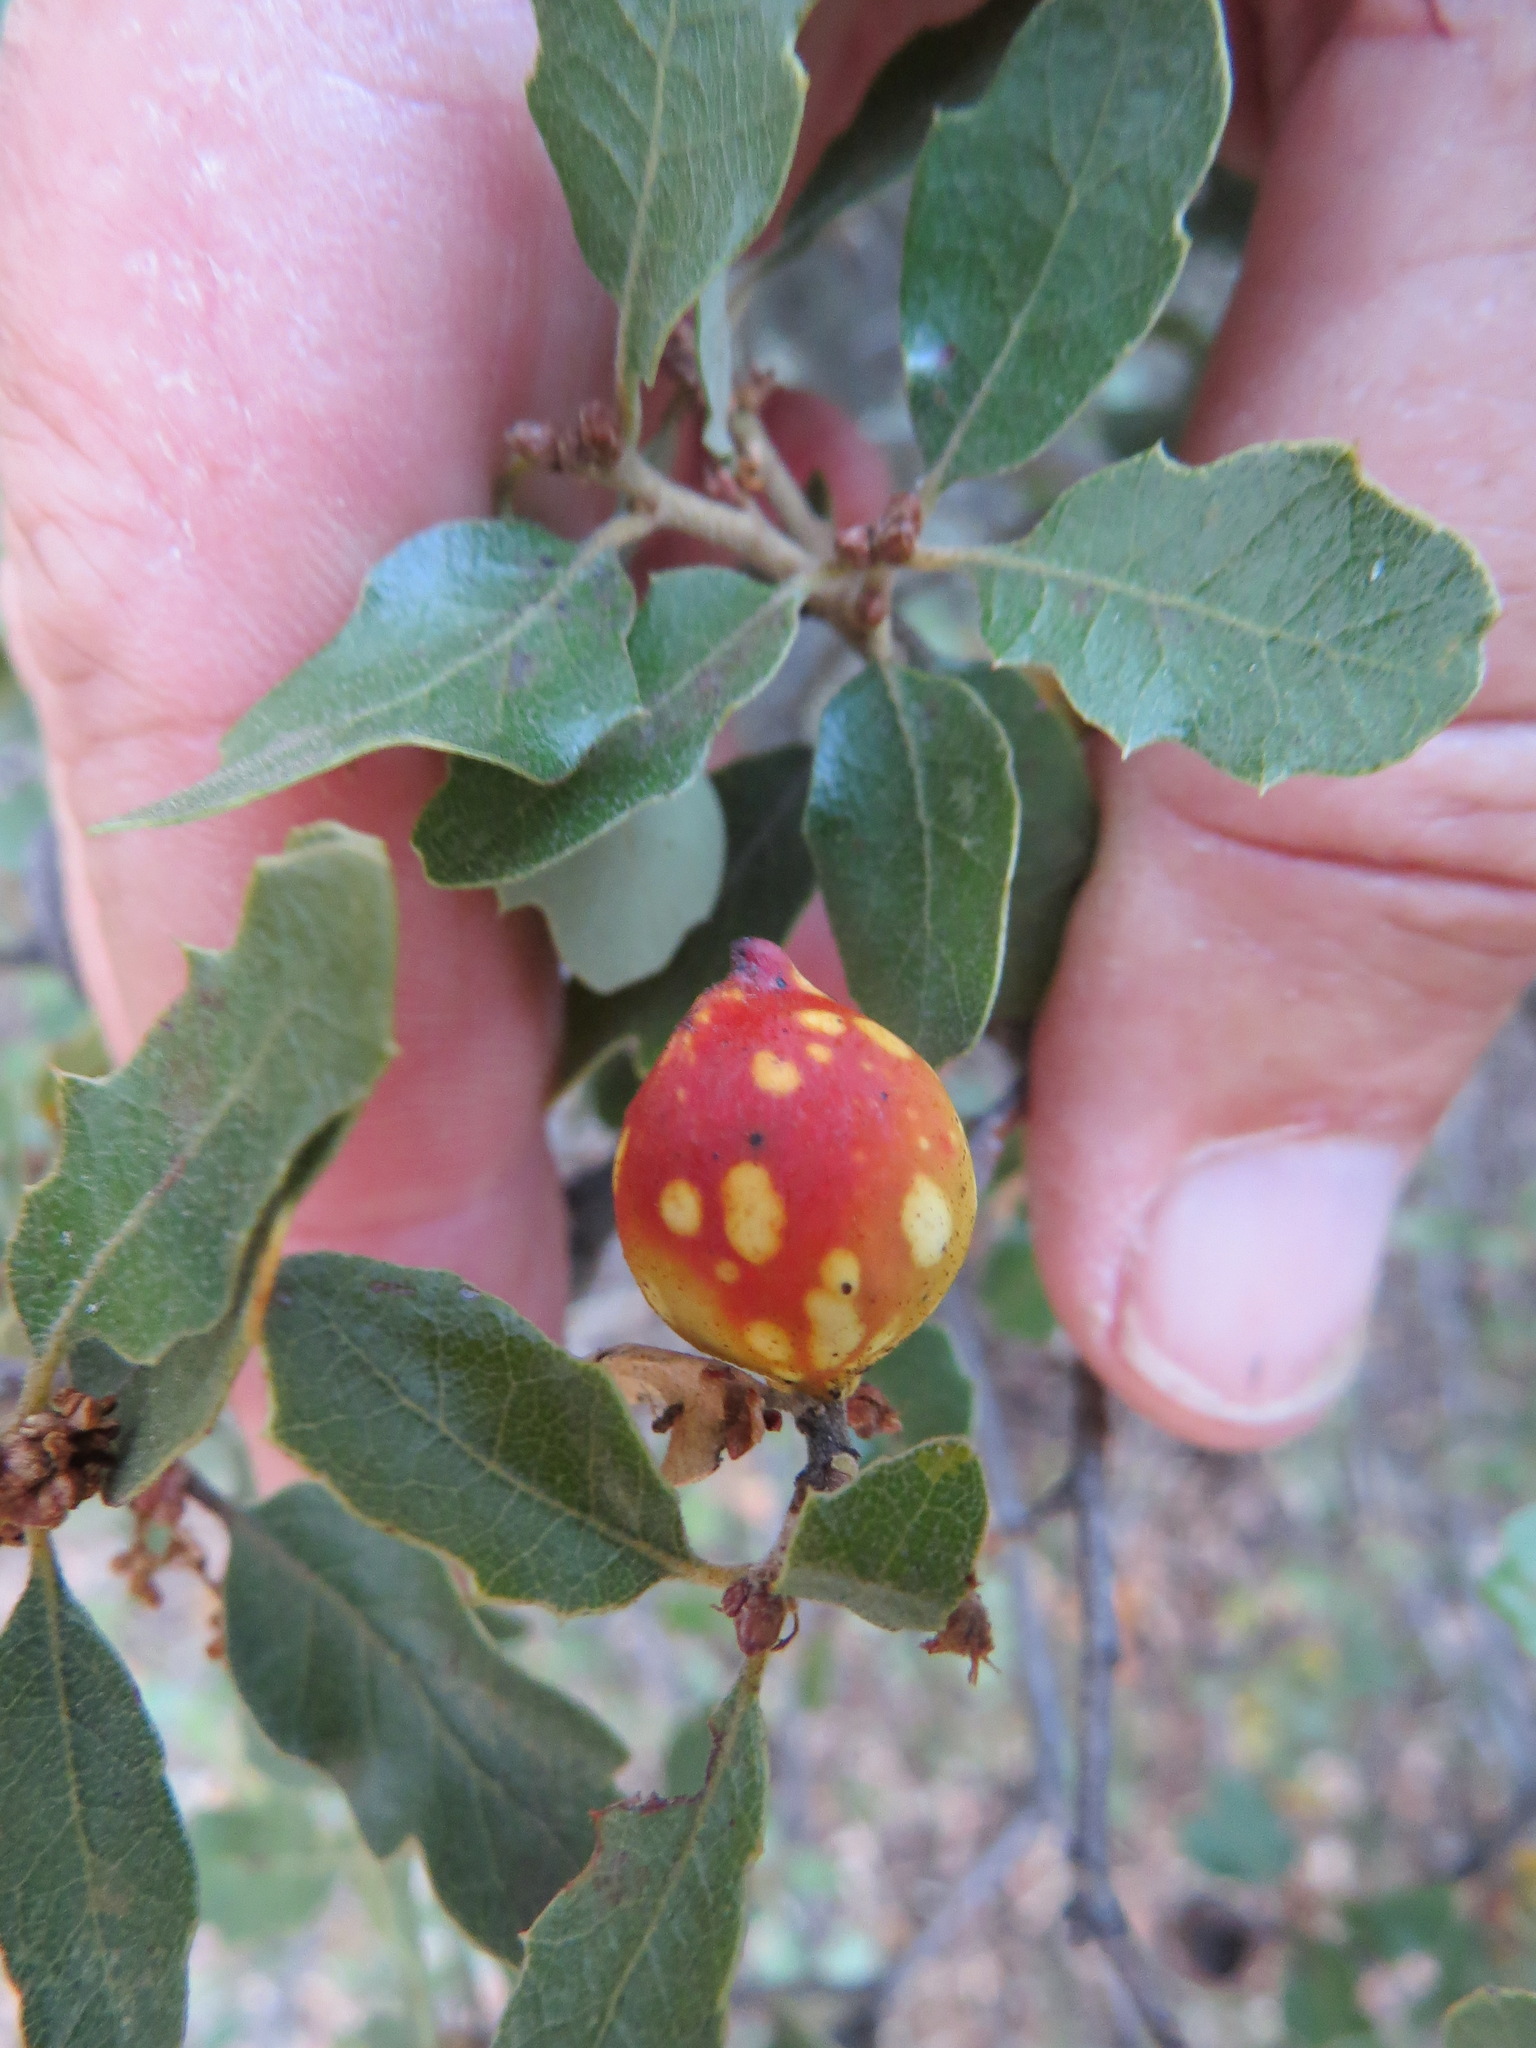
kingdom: Animalia
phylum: Arthropoda
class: Insecta
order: Hymenoptera
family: Cynipidae
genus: Burnettweldia
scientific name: Burnettweldia
